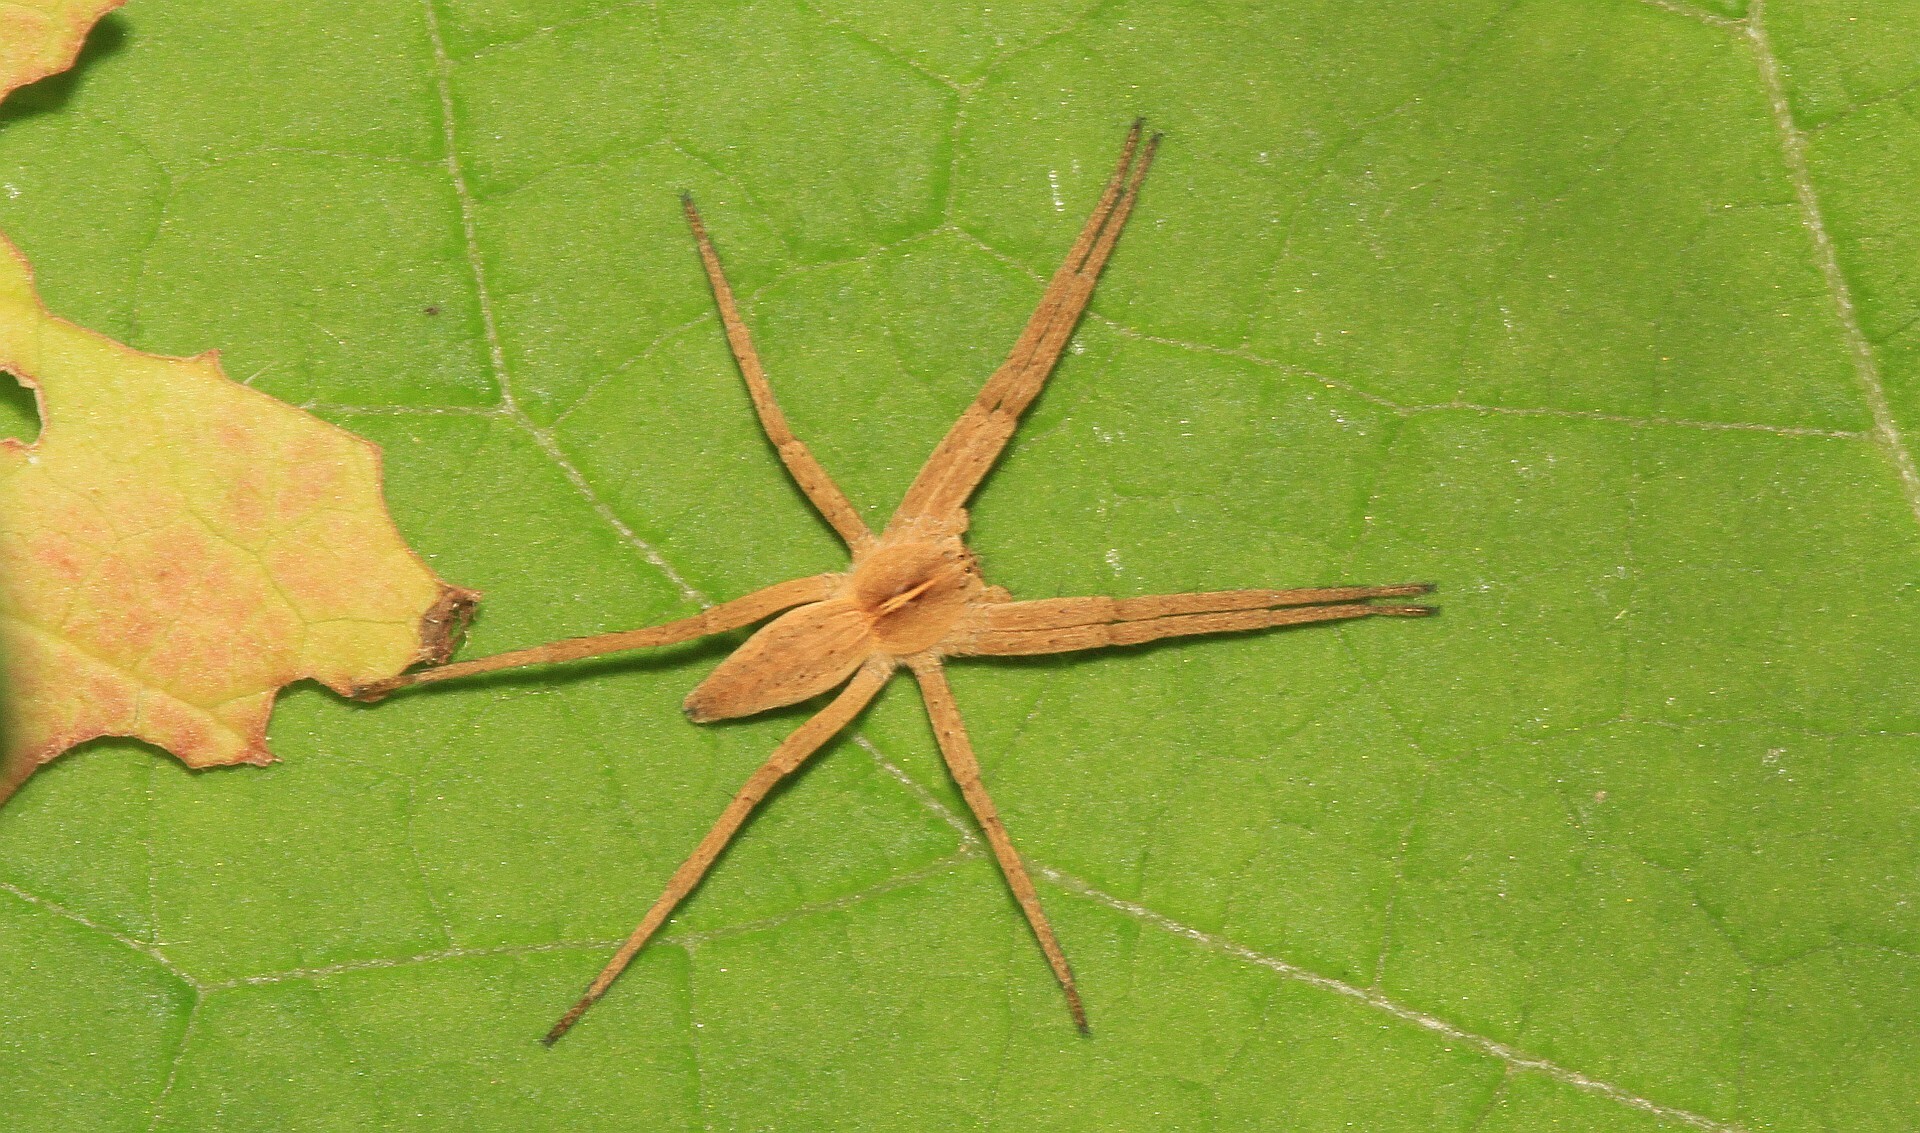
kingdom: Animalia
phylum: Arthropoda
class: Arachnida
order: Araneae
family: Pisauridae
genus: Pisaura
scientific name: Pisaura mirabilis
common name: Tent spider
